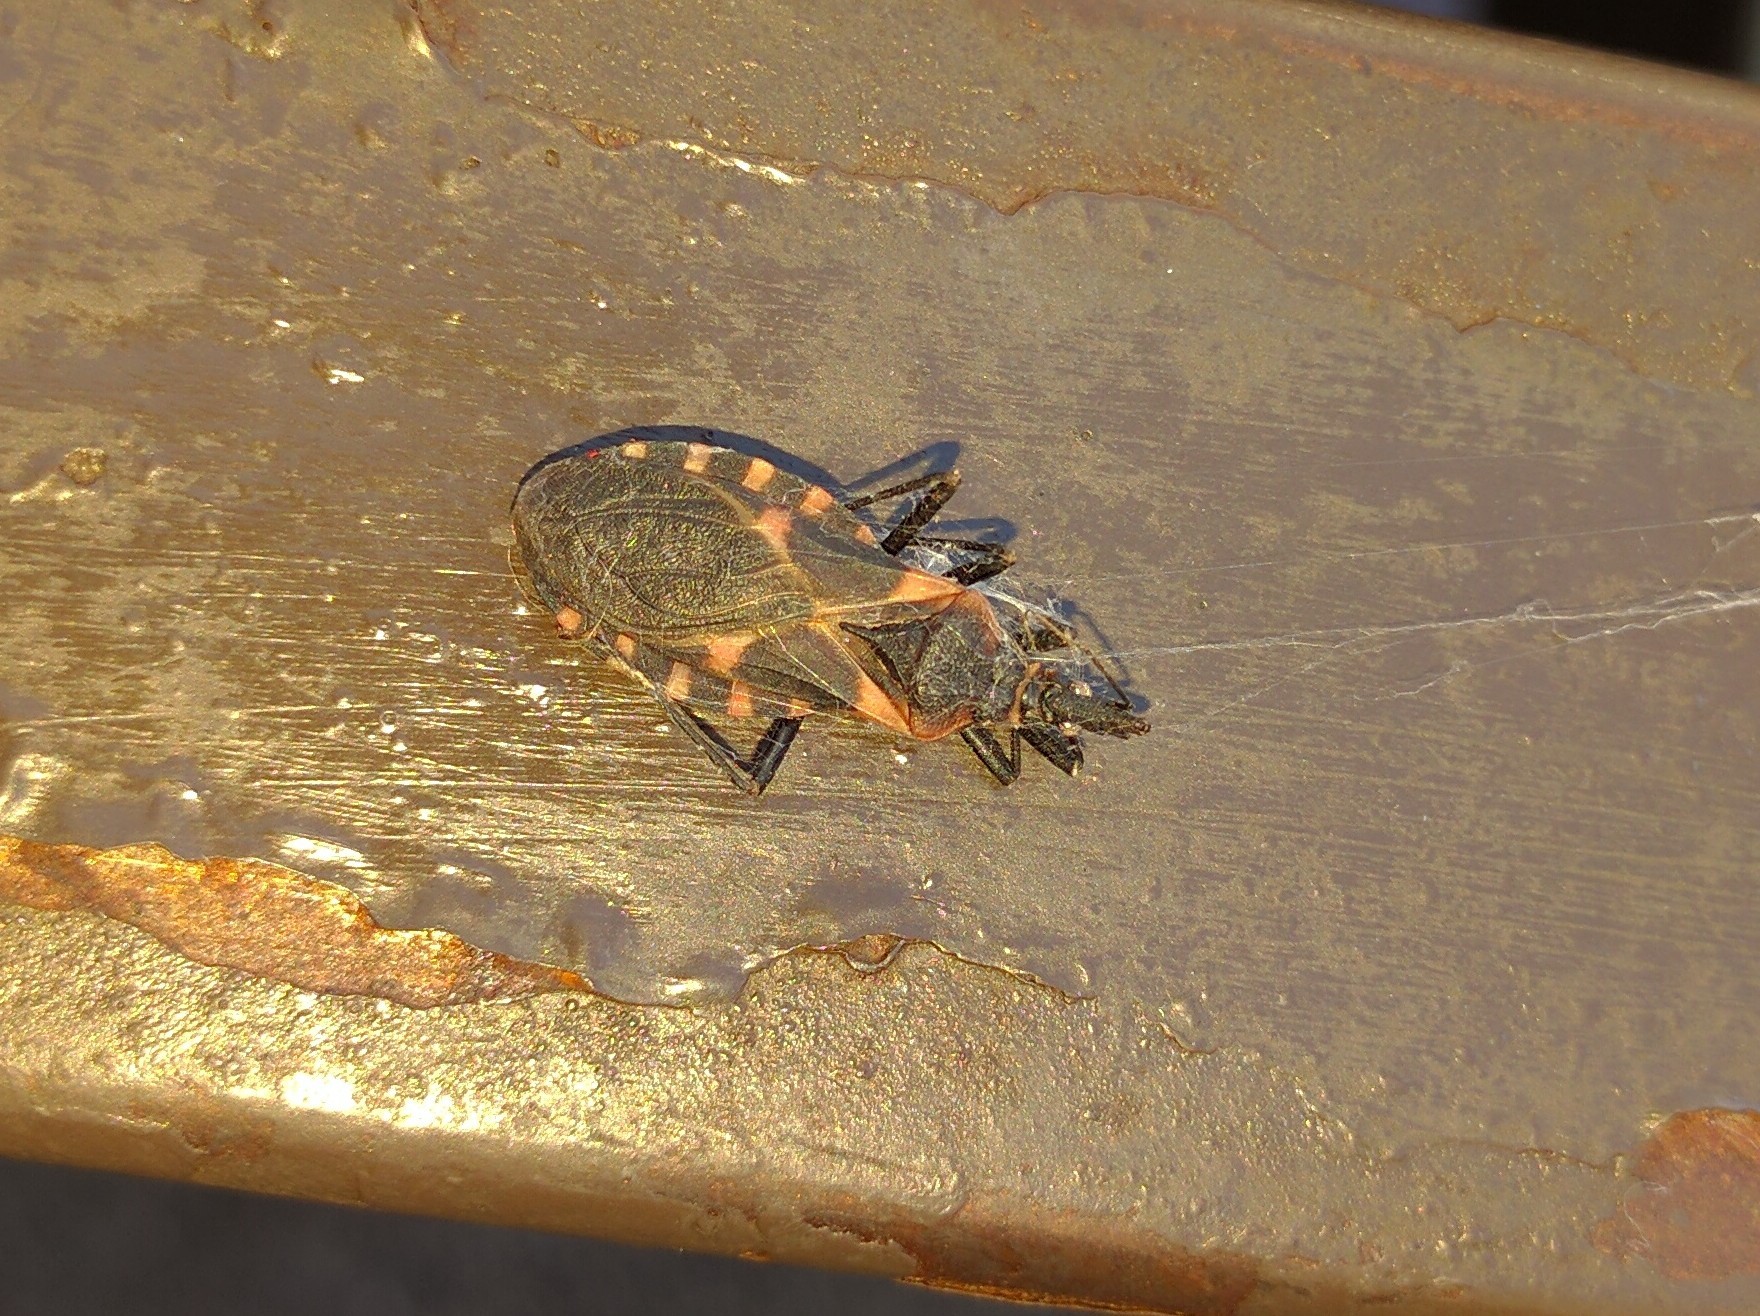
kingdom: Animalia
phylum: Arthropoda
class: Insecta
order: Hemiptera
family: Reduviidae
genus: Triatoma
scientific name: Triatoma sanguisuga
